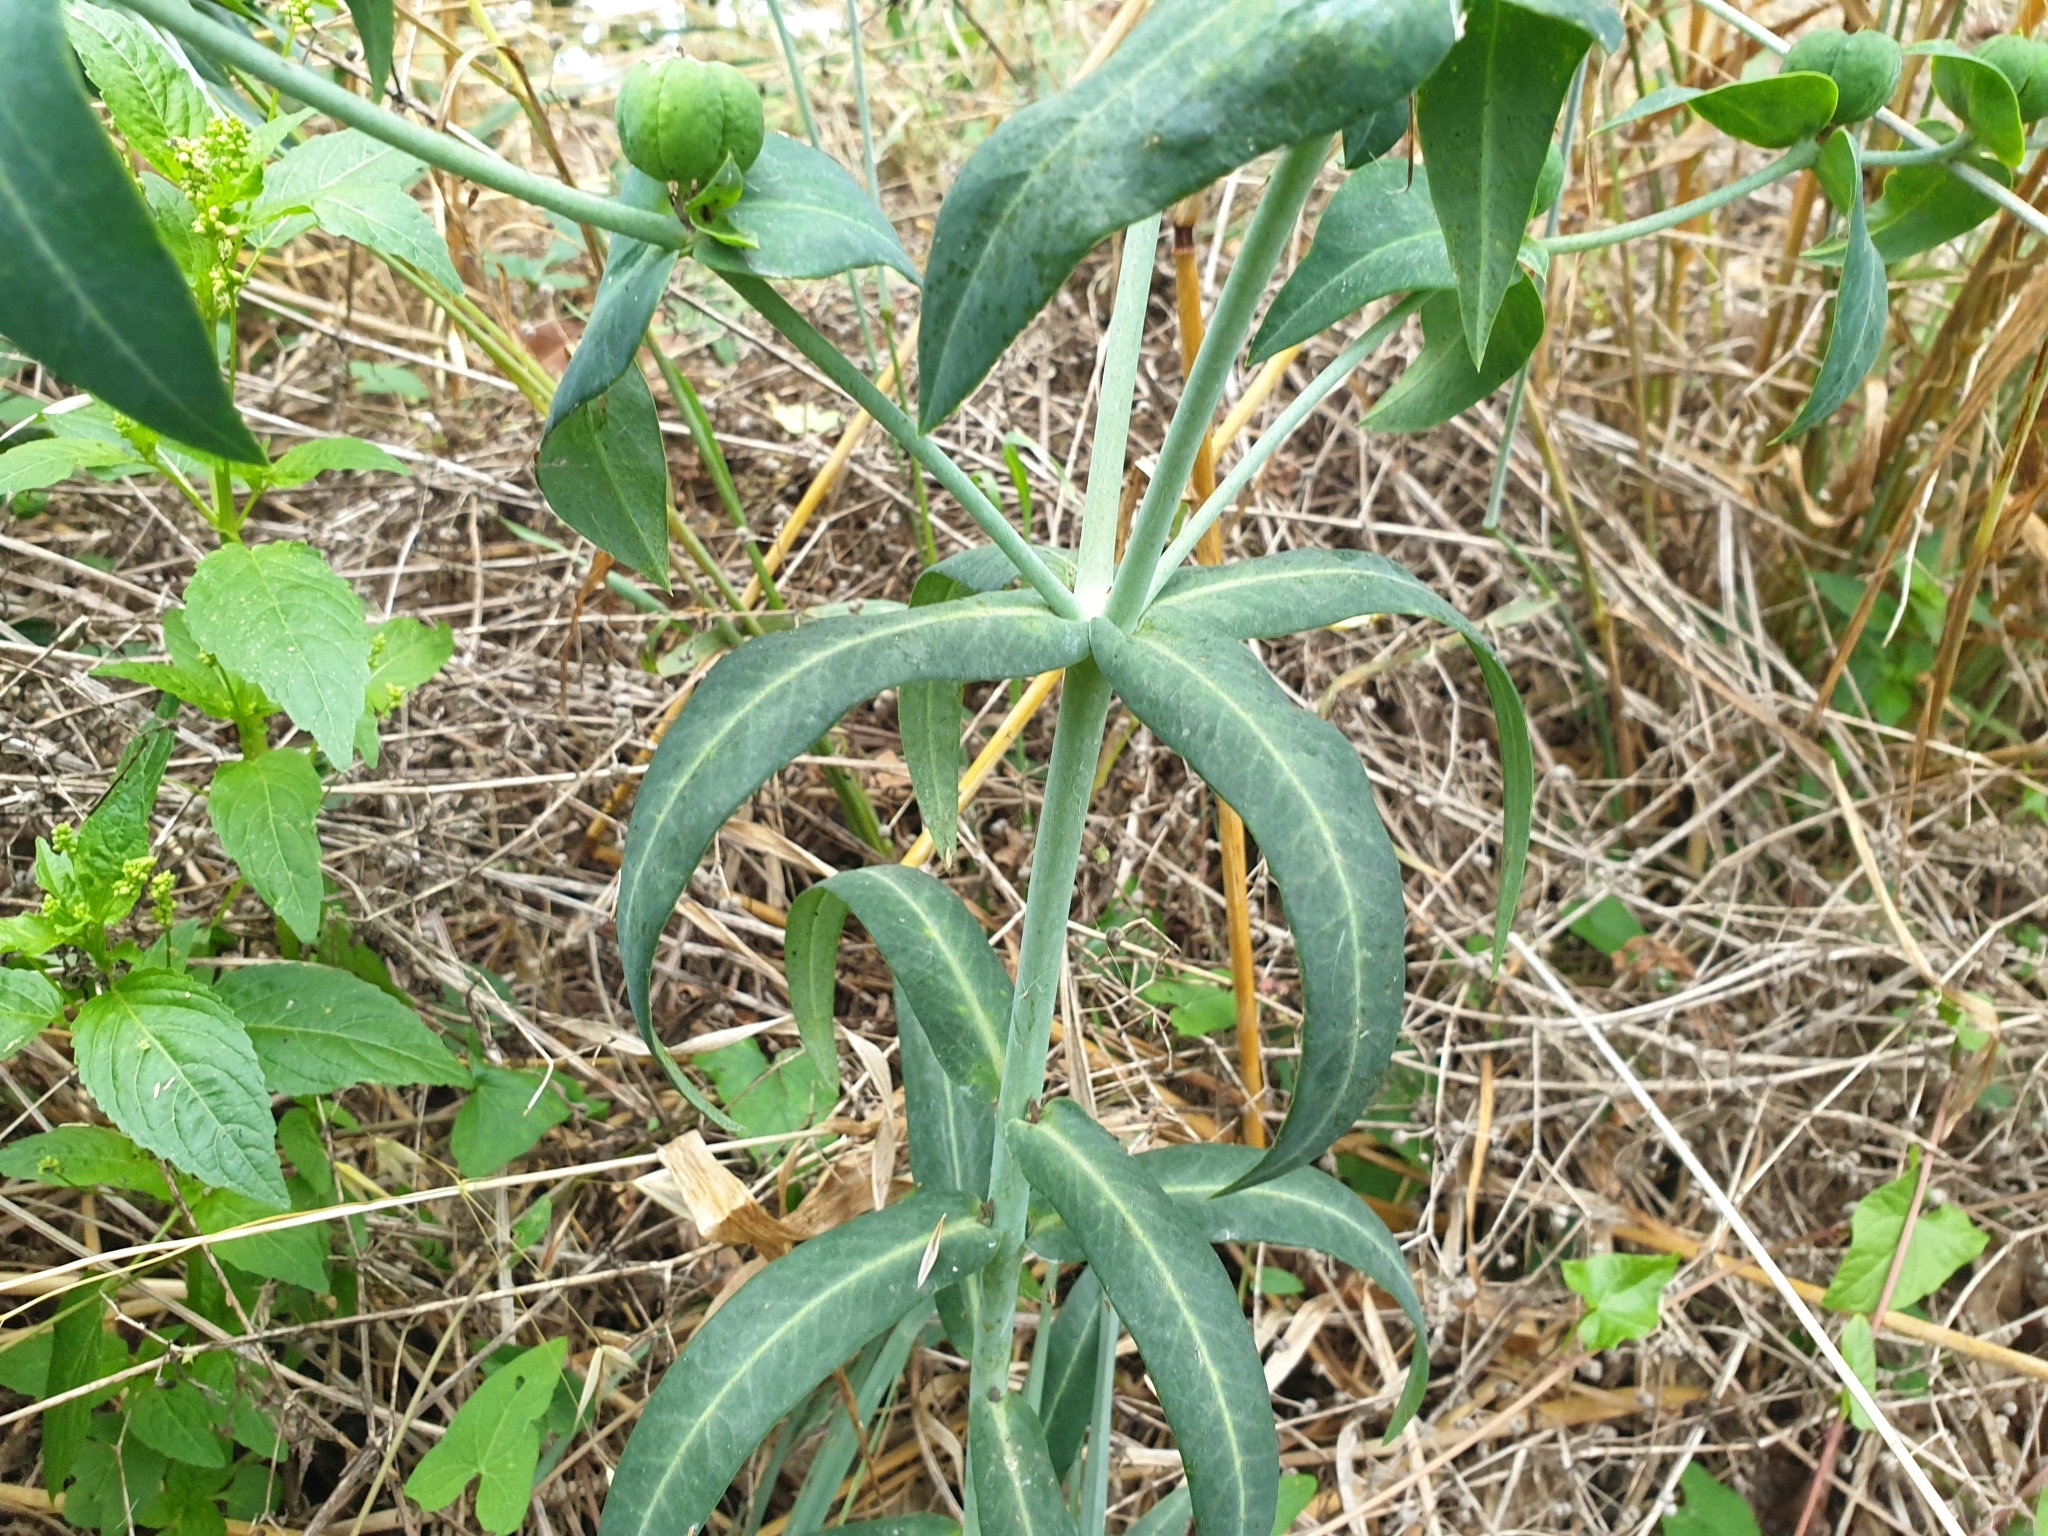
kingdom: Plantae
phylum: Tracheophyta
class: Magnoliopsida
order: Malpighiales
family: Euphorbiaceae
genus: Euphorbia
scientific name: Euphorbia lathyris
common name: Caper spurge
